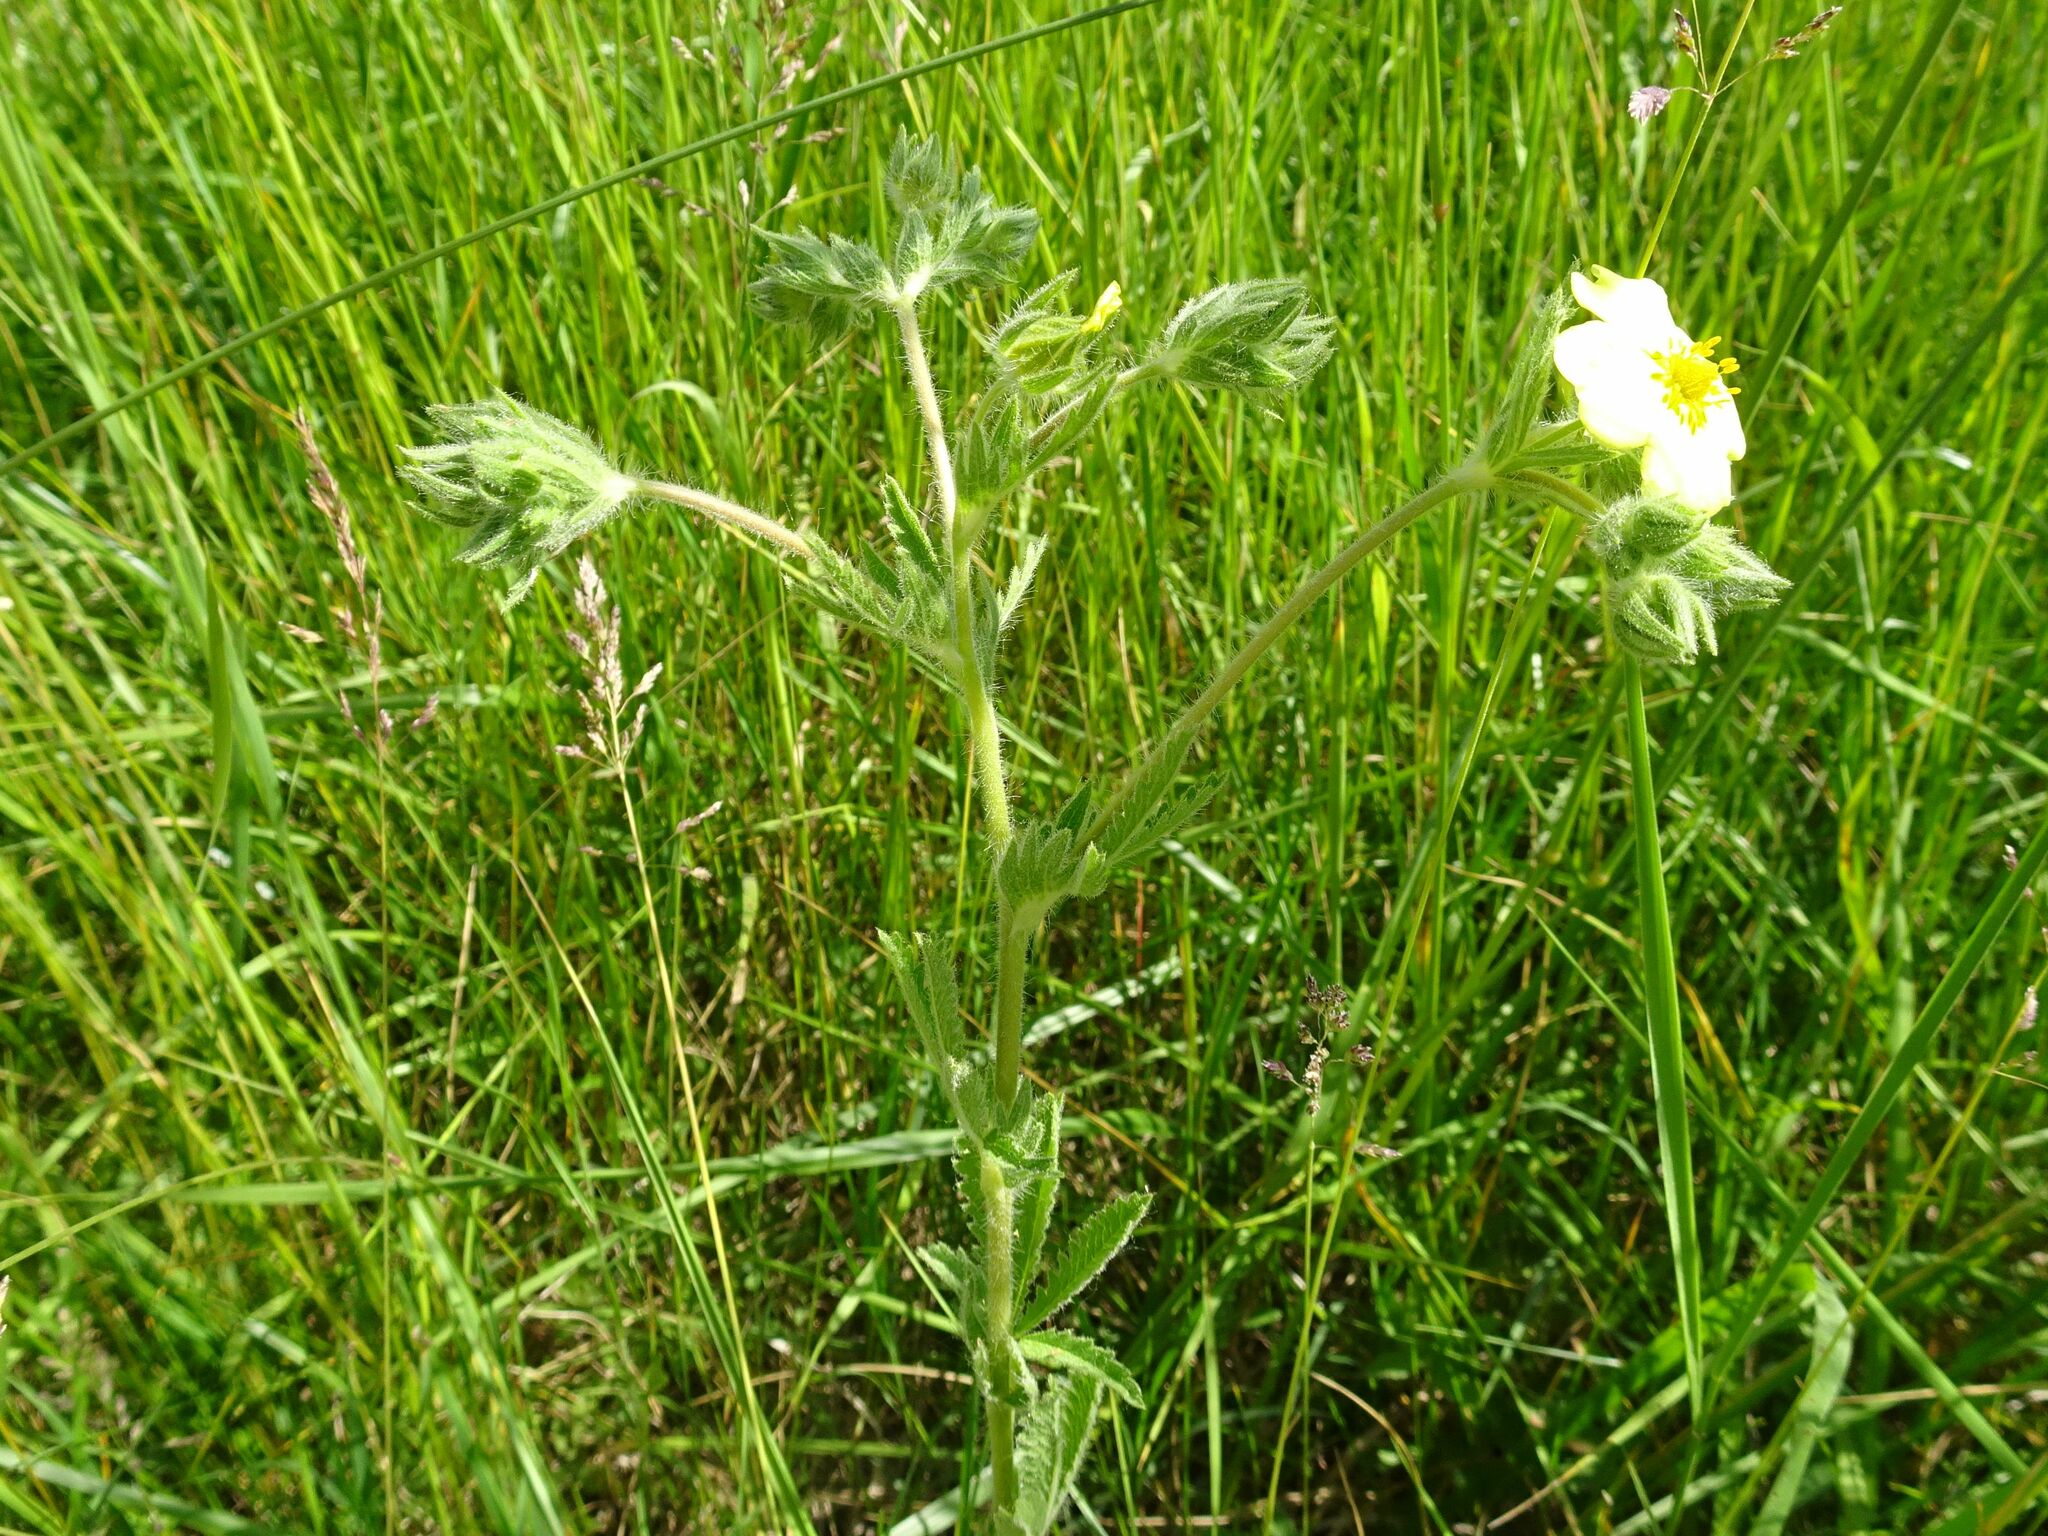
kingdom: Plantae
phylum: Tracheophyta
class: Magnoliopsida
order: Rosales
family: Rosaceae
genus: Potentilla
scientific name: Potentilla recta
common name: Sulphur cinquefoil
